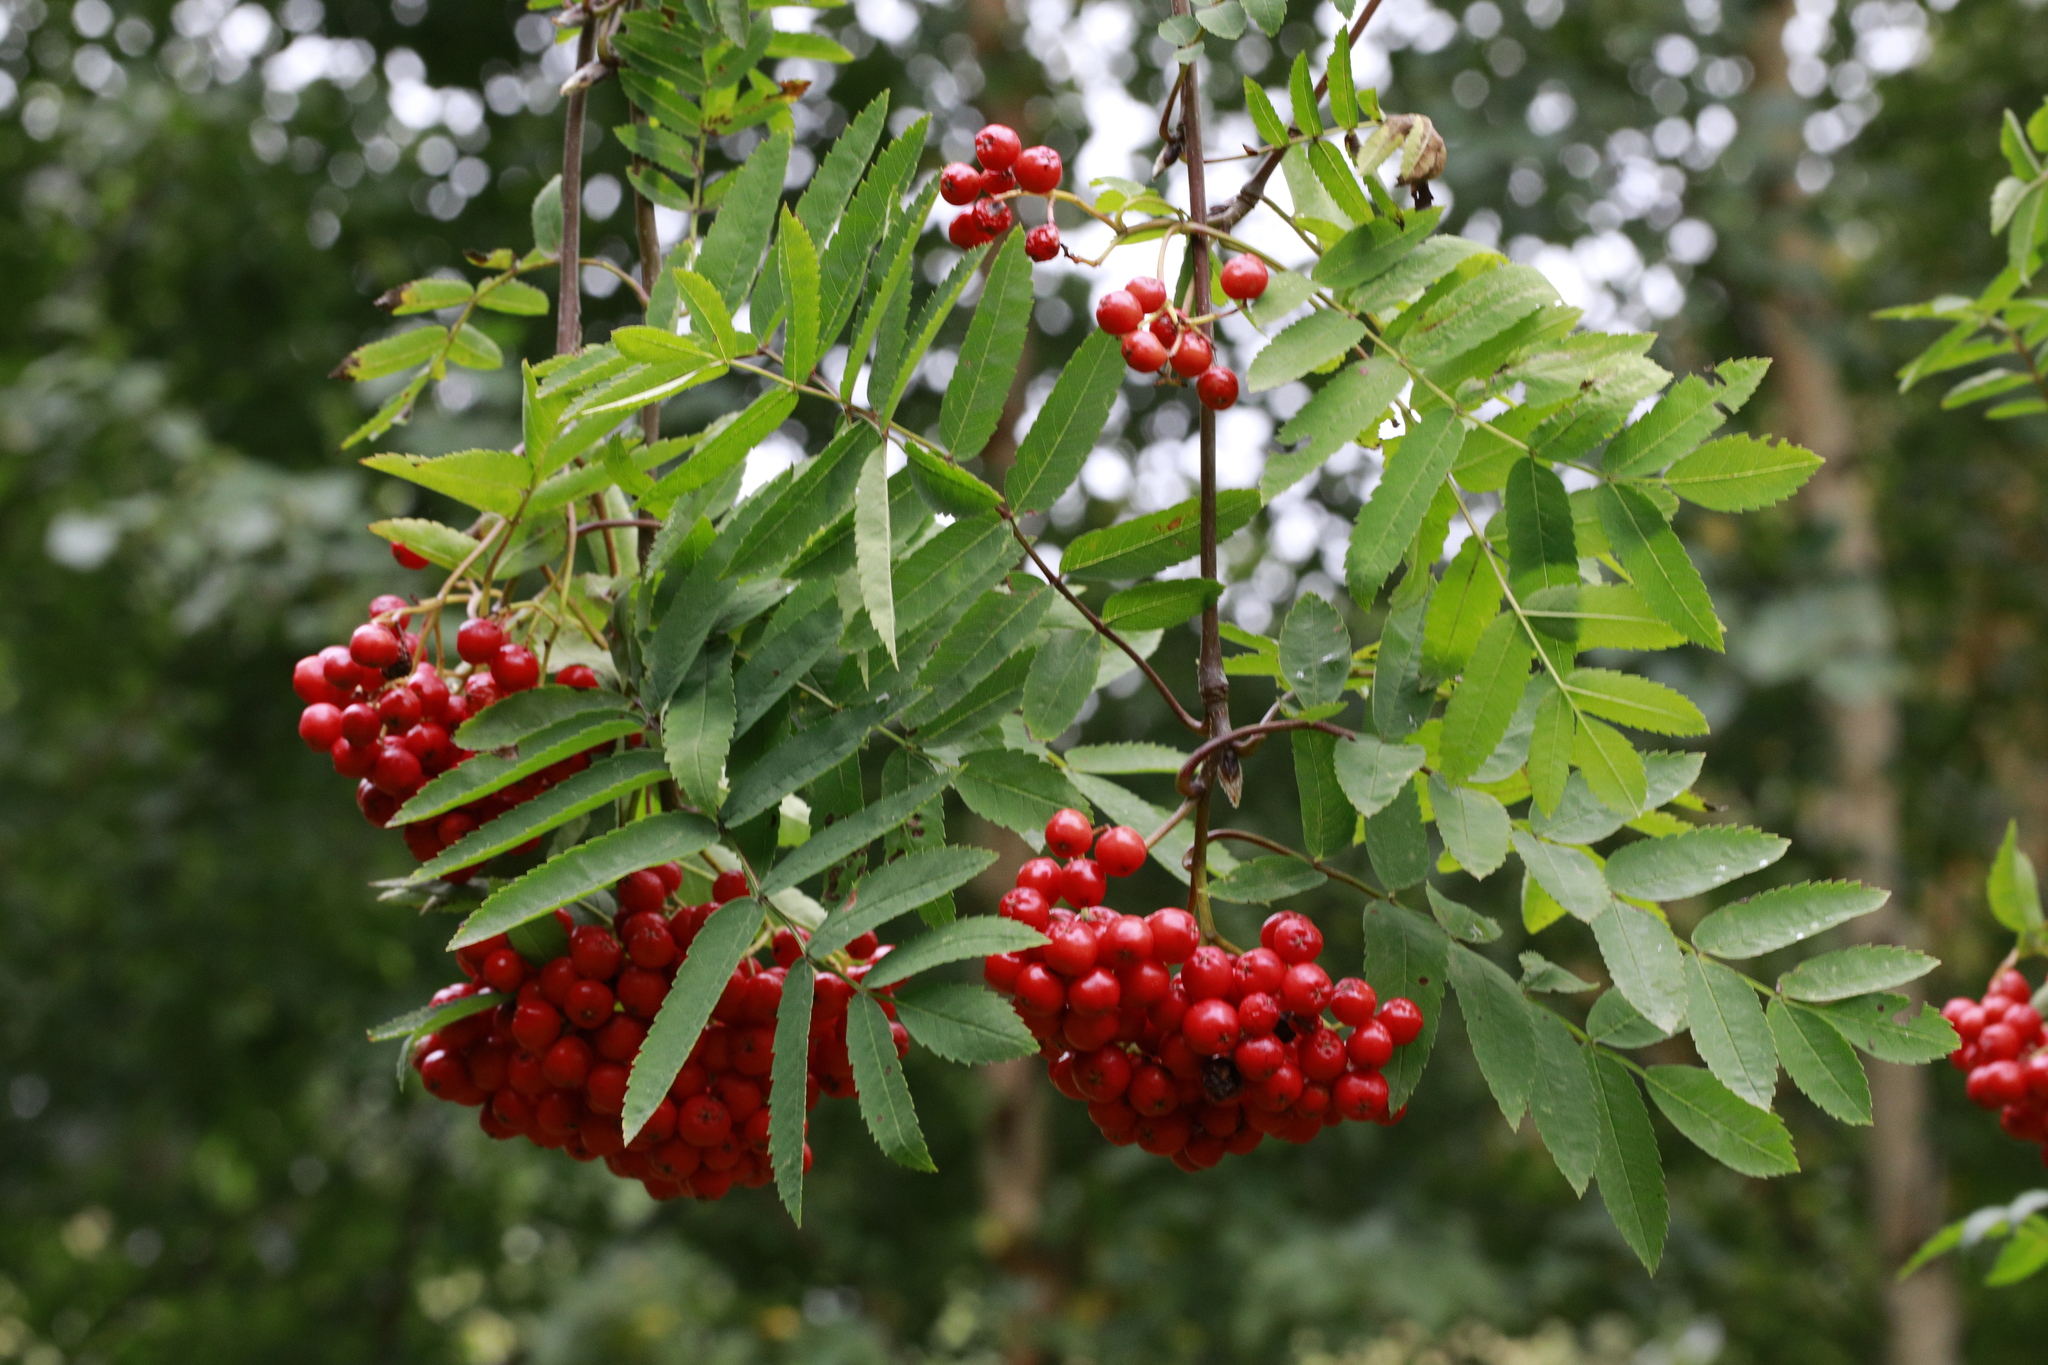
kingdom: Plantae
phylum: Tracheophyta
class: Magnoliopsida
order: Rosales
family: Rosaceae
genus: Sorbus
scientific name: Sorbus aucuparia
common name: Rowan
